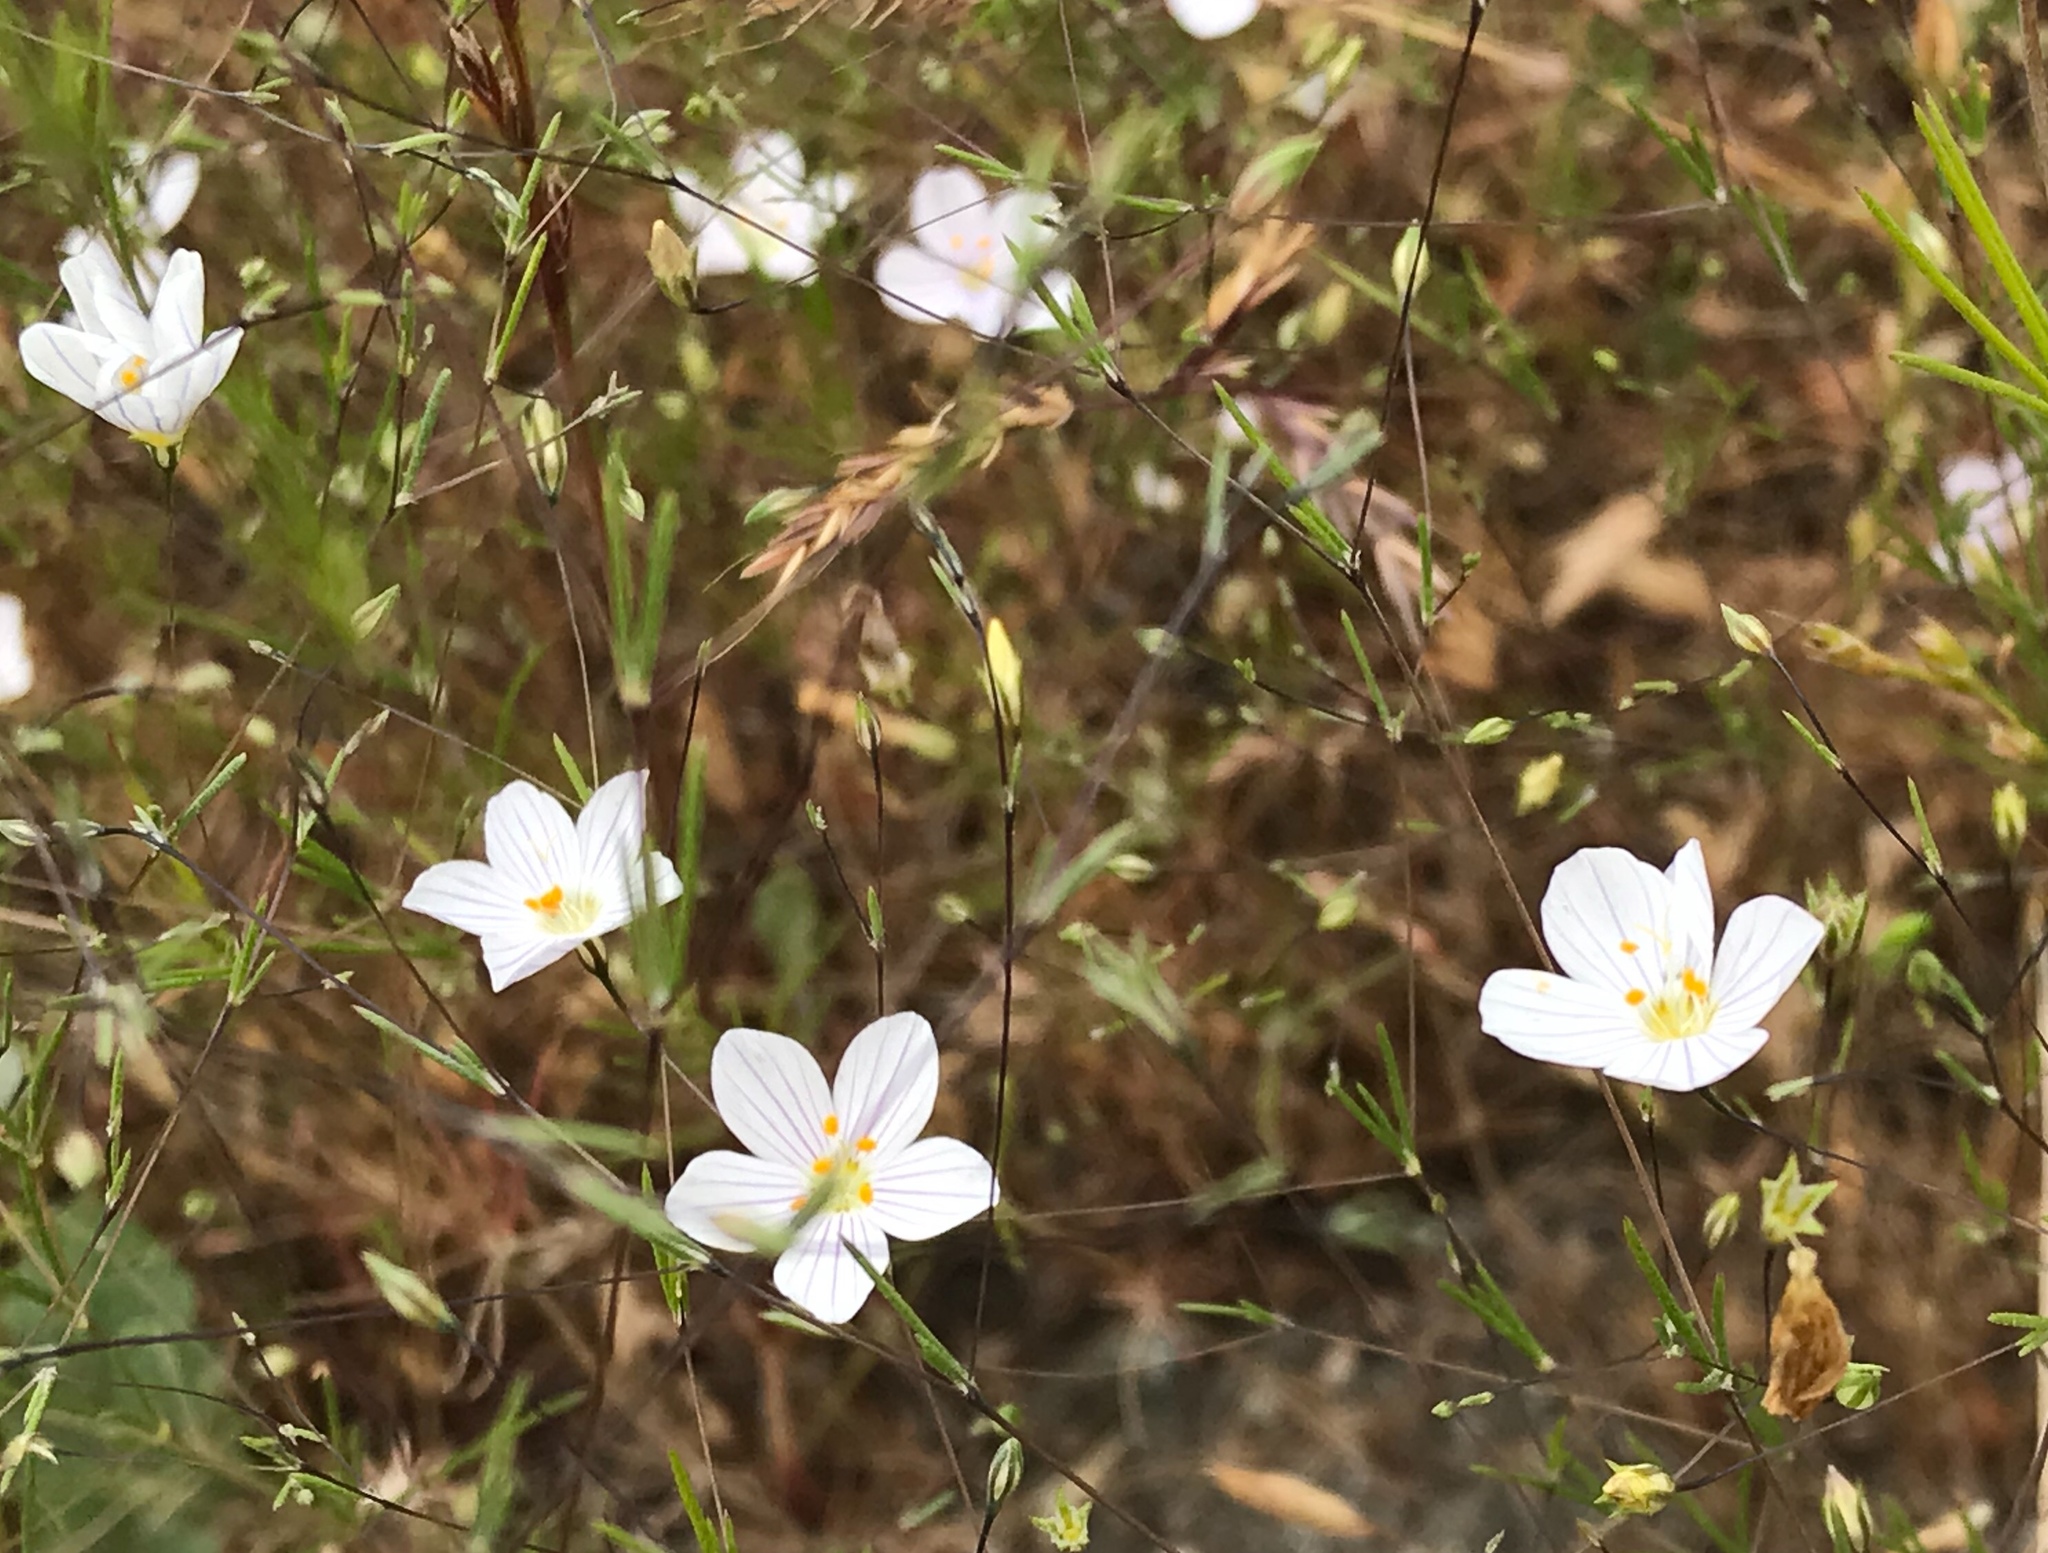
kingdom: Plantae
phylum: Tracheophyta
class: Magnoliopsida
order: Ericales
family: Polemoniaceae
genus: Leptosiphon
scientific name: Leptosiphon liniflorus
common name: Narrowflower flaxflower
